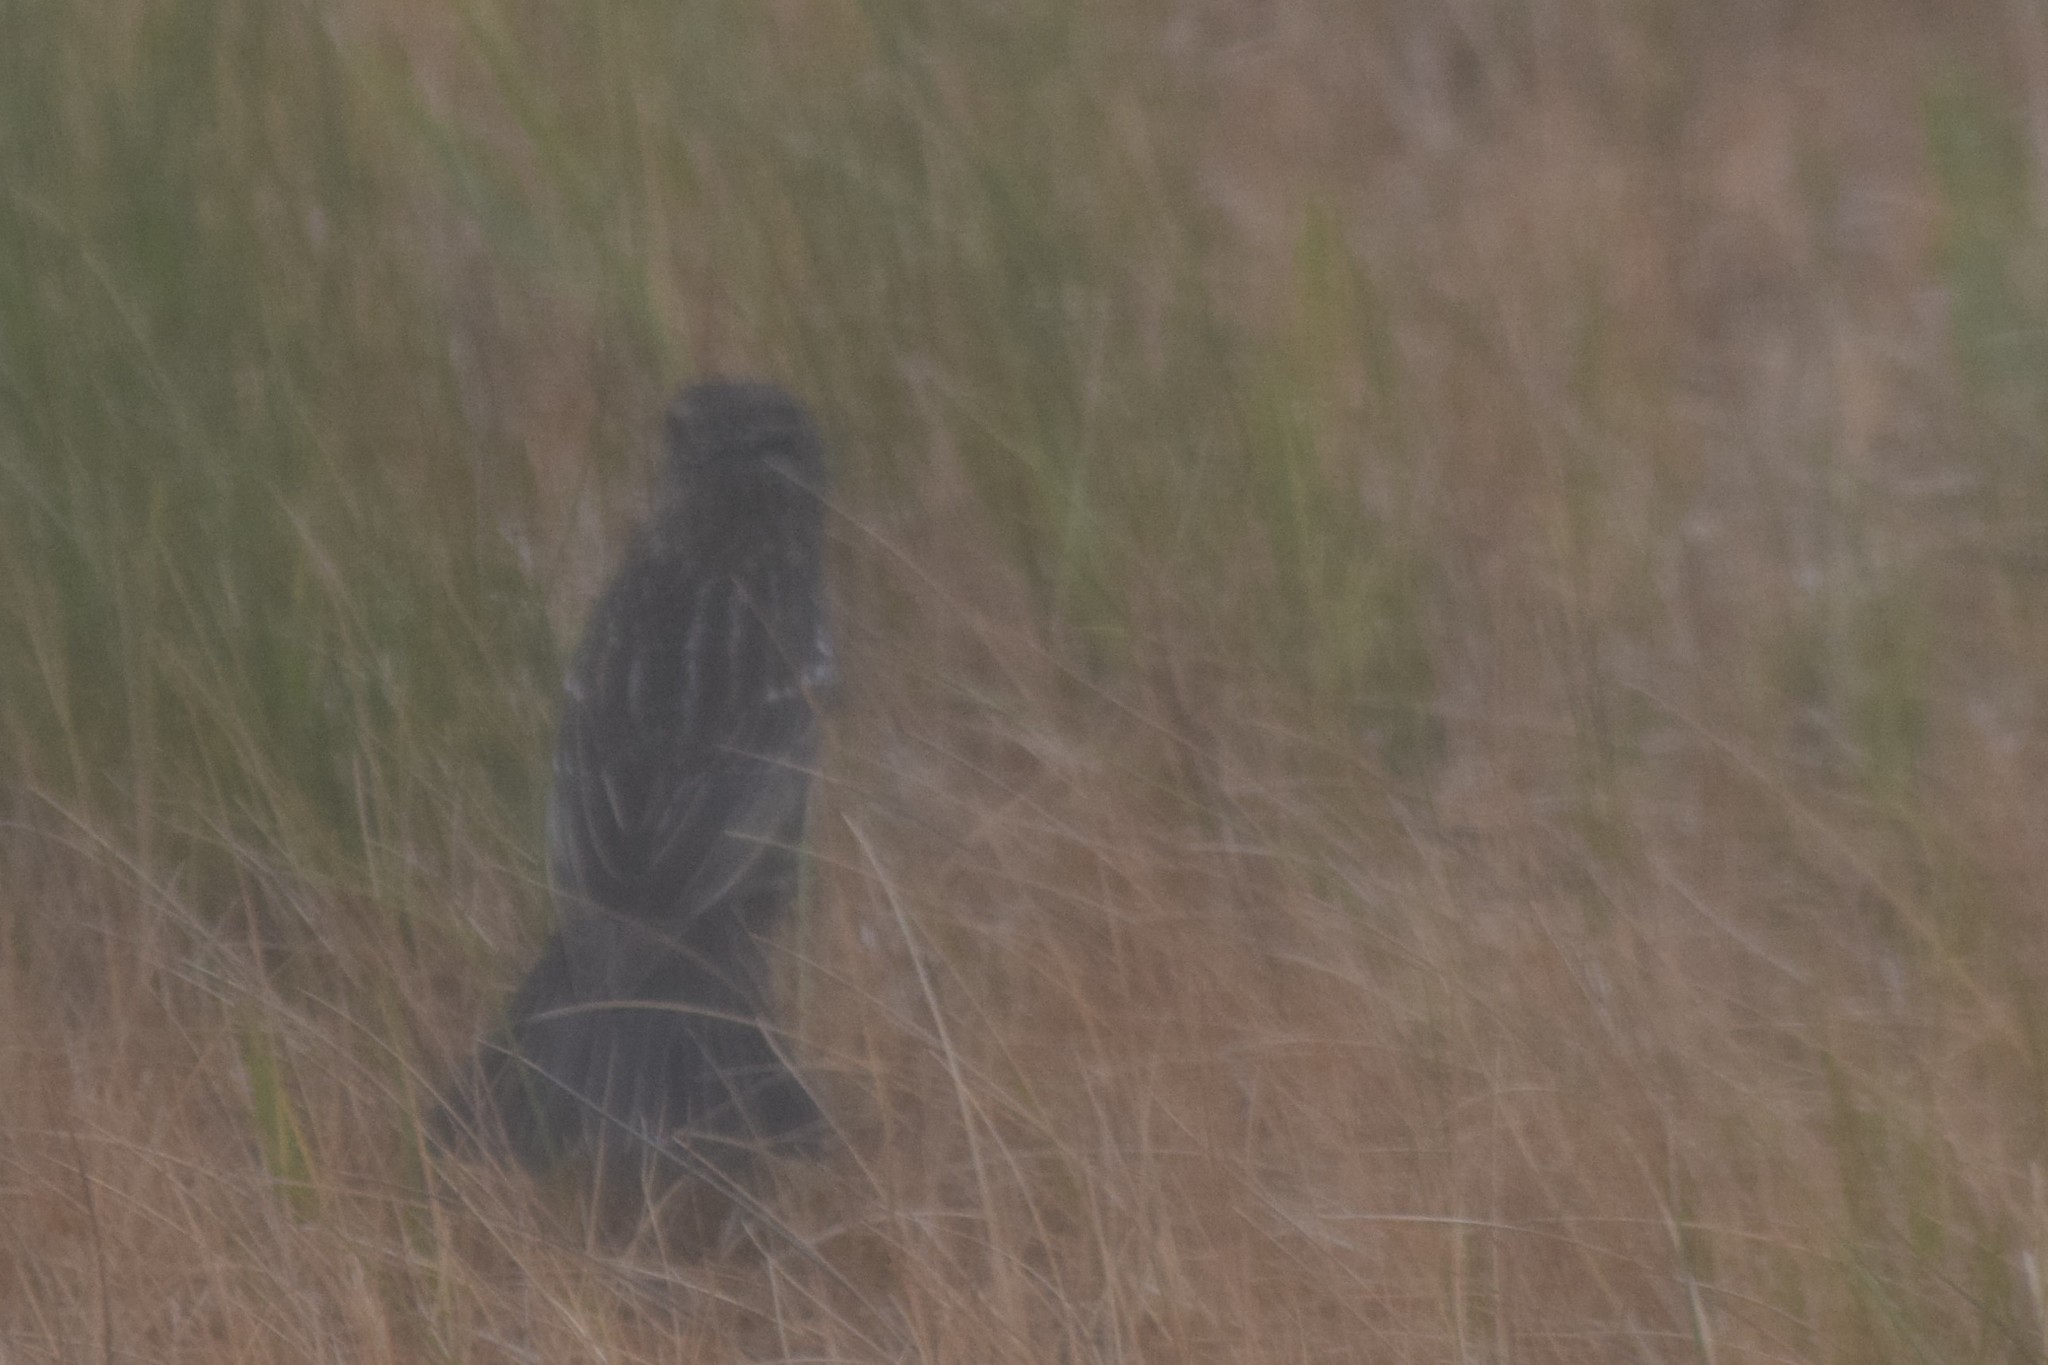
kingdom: Animalia
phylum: Chordata
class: Aves
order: Passeriformes
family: Icteridae
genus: Agelaius
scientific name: Agelaius phoeniceus
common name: Red-winged blackbird
